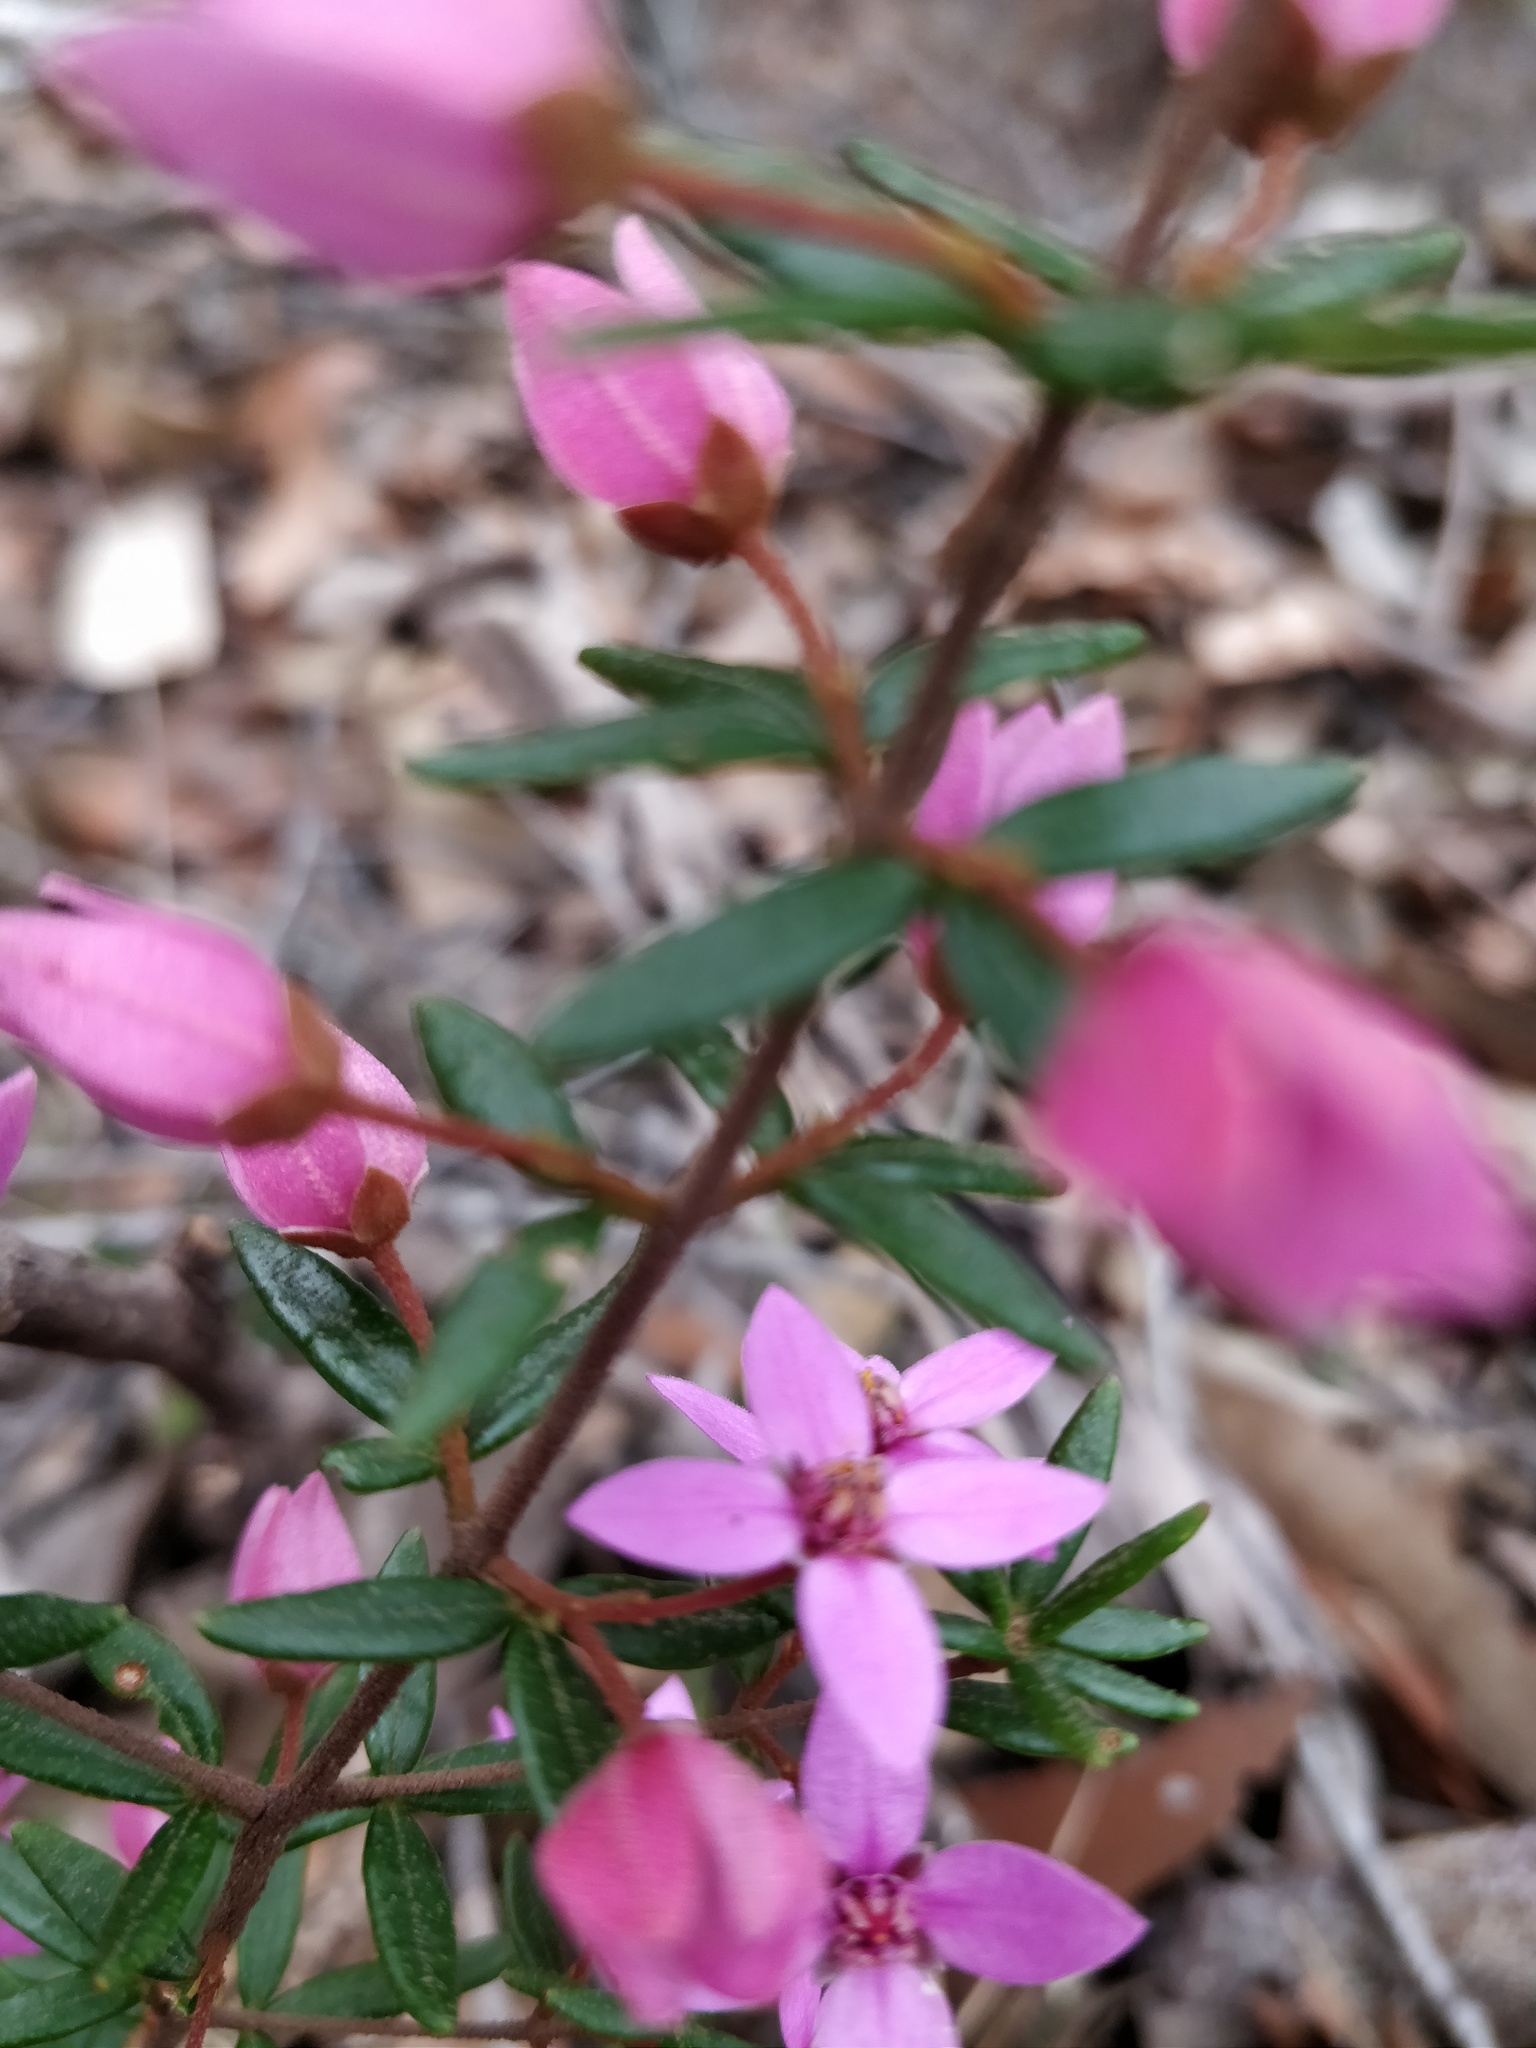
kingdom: Plantae
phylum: Tracheophyta
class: Magnoliopsida
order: Sapindales
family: Rutaceae
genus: Boronia
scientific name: Boronia ledifolia
